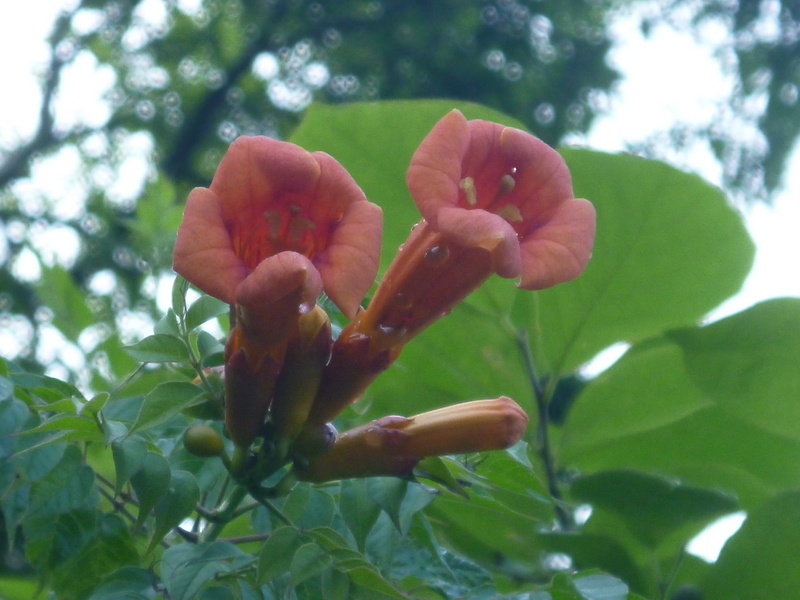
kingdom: Plantae
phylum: Tracheophyta
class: Magnoliopsida
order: Lamiales
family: Bignoniaceae
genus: Campsis
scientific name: Campsis radicans
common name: Trumpet-creeper
